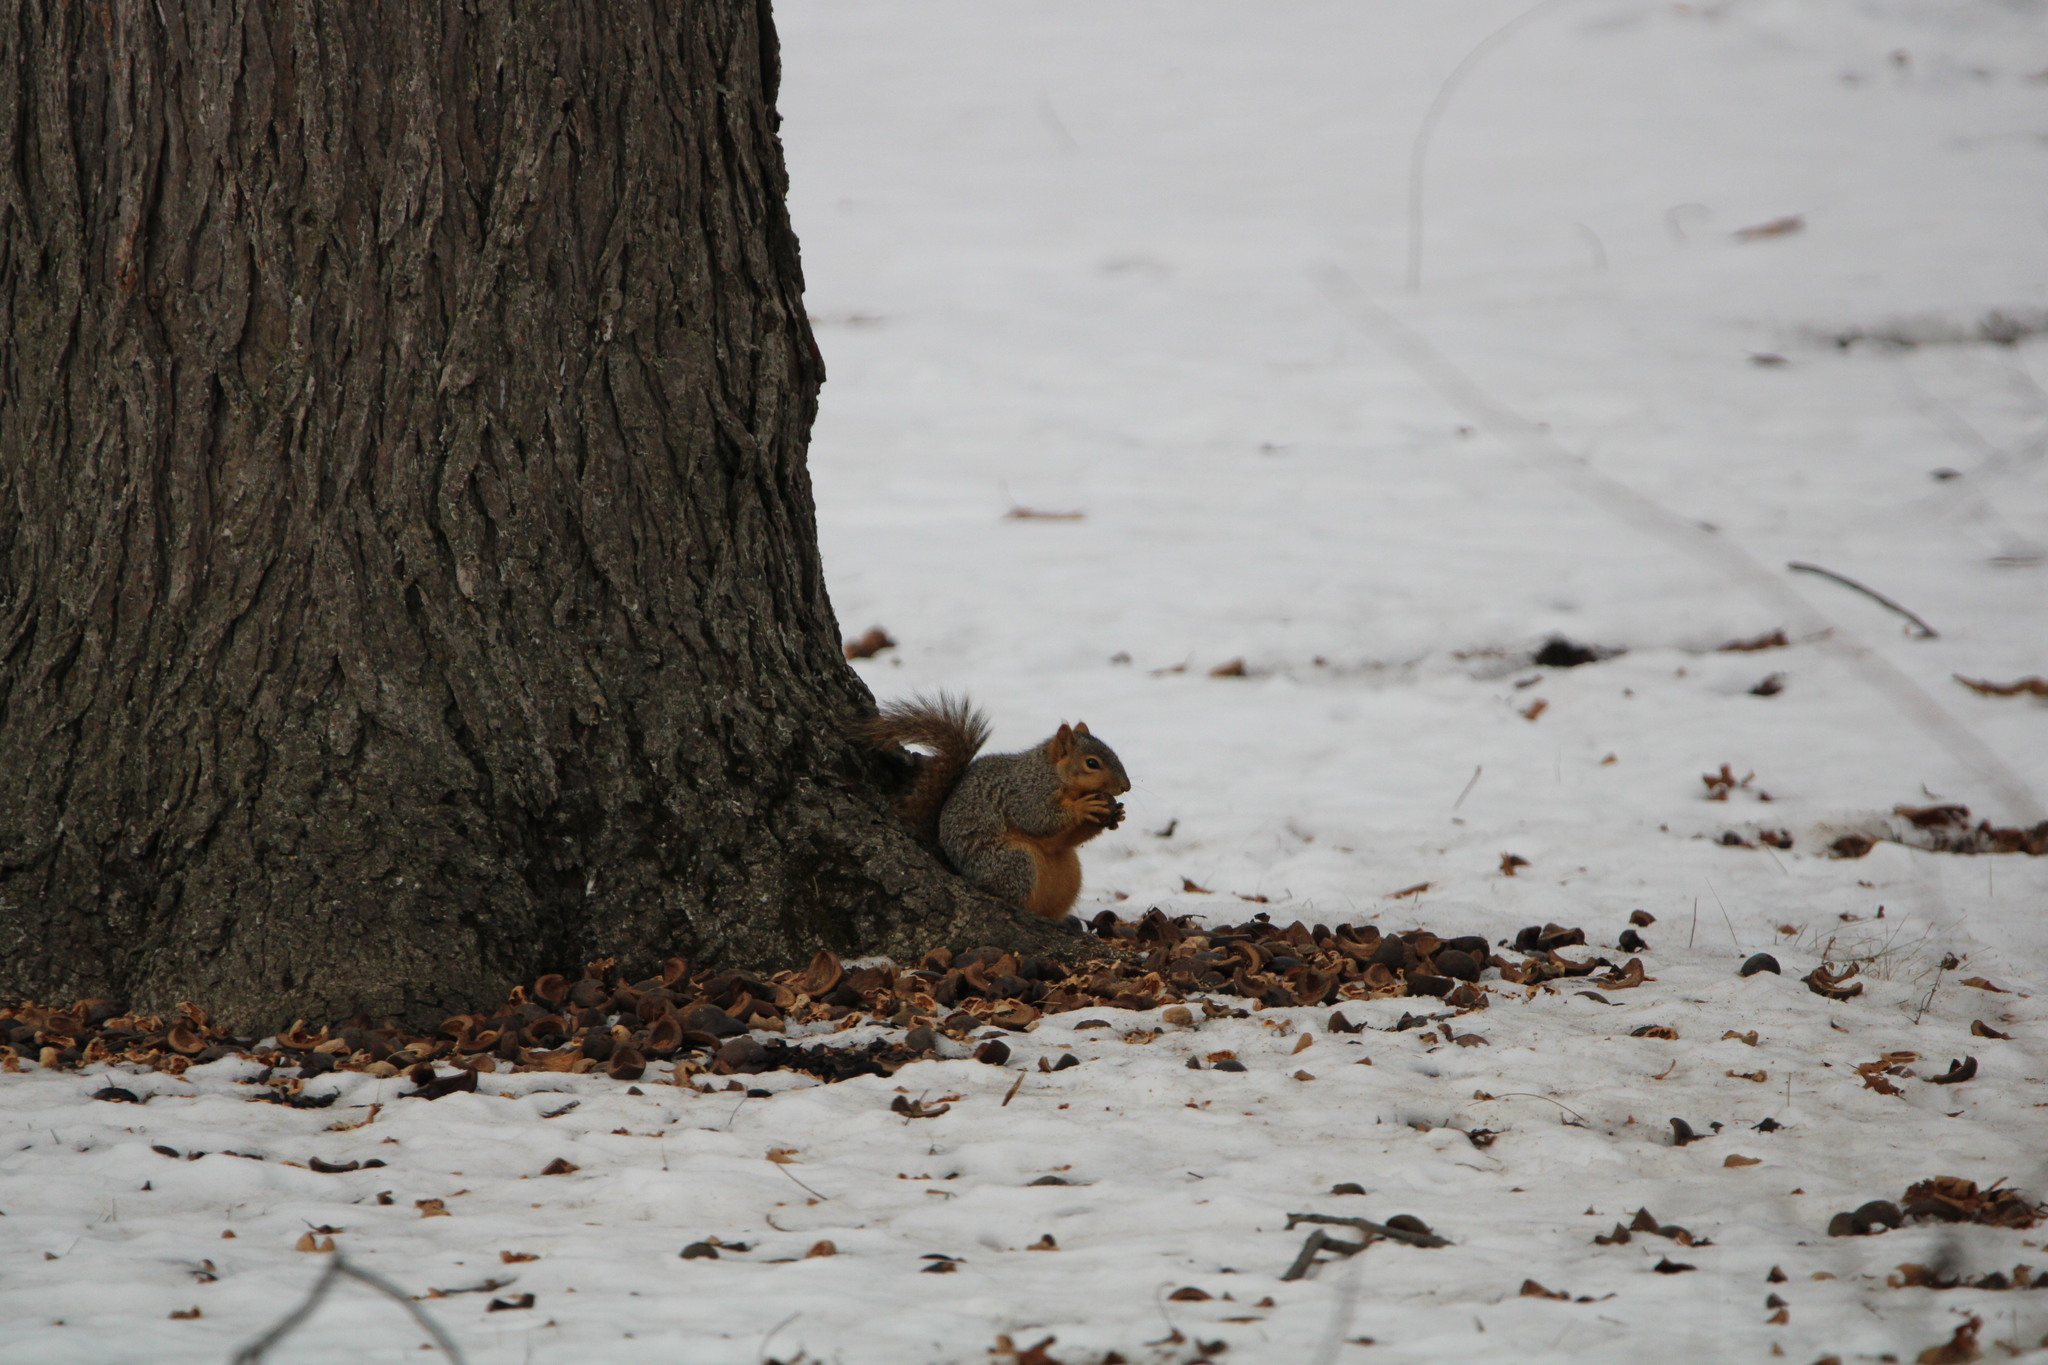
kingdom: Animalia
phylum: Chordata
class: Mammalia
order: Rodentia
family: Sciuridae
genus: Sciurus
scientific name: Sciurus niger
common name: Fox squirrel
